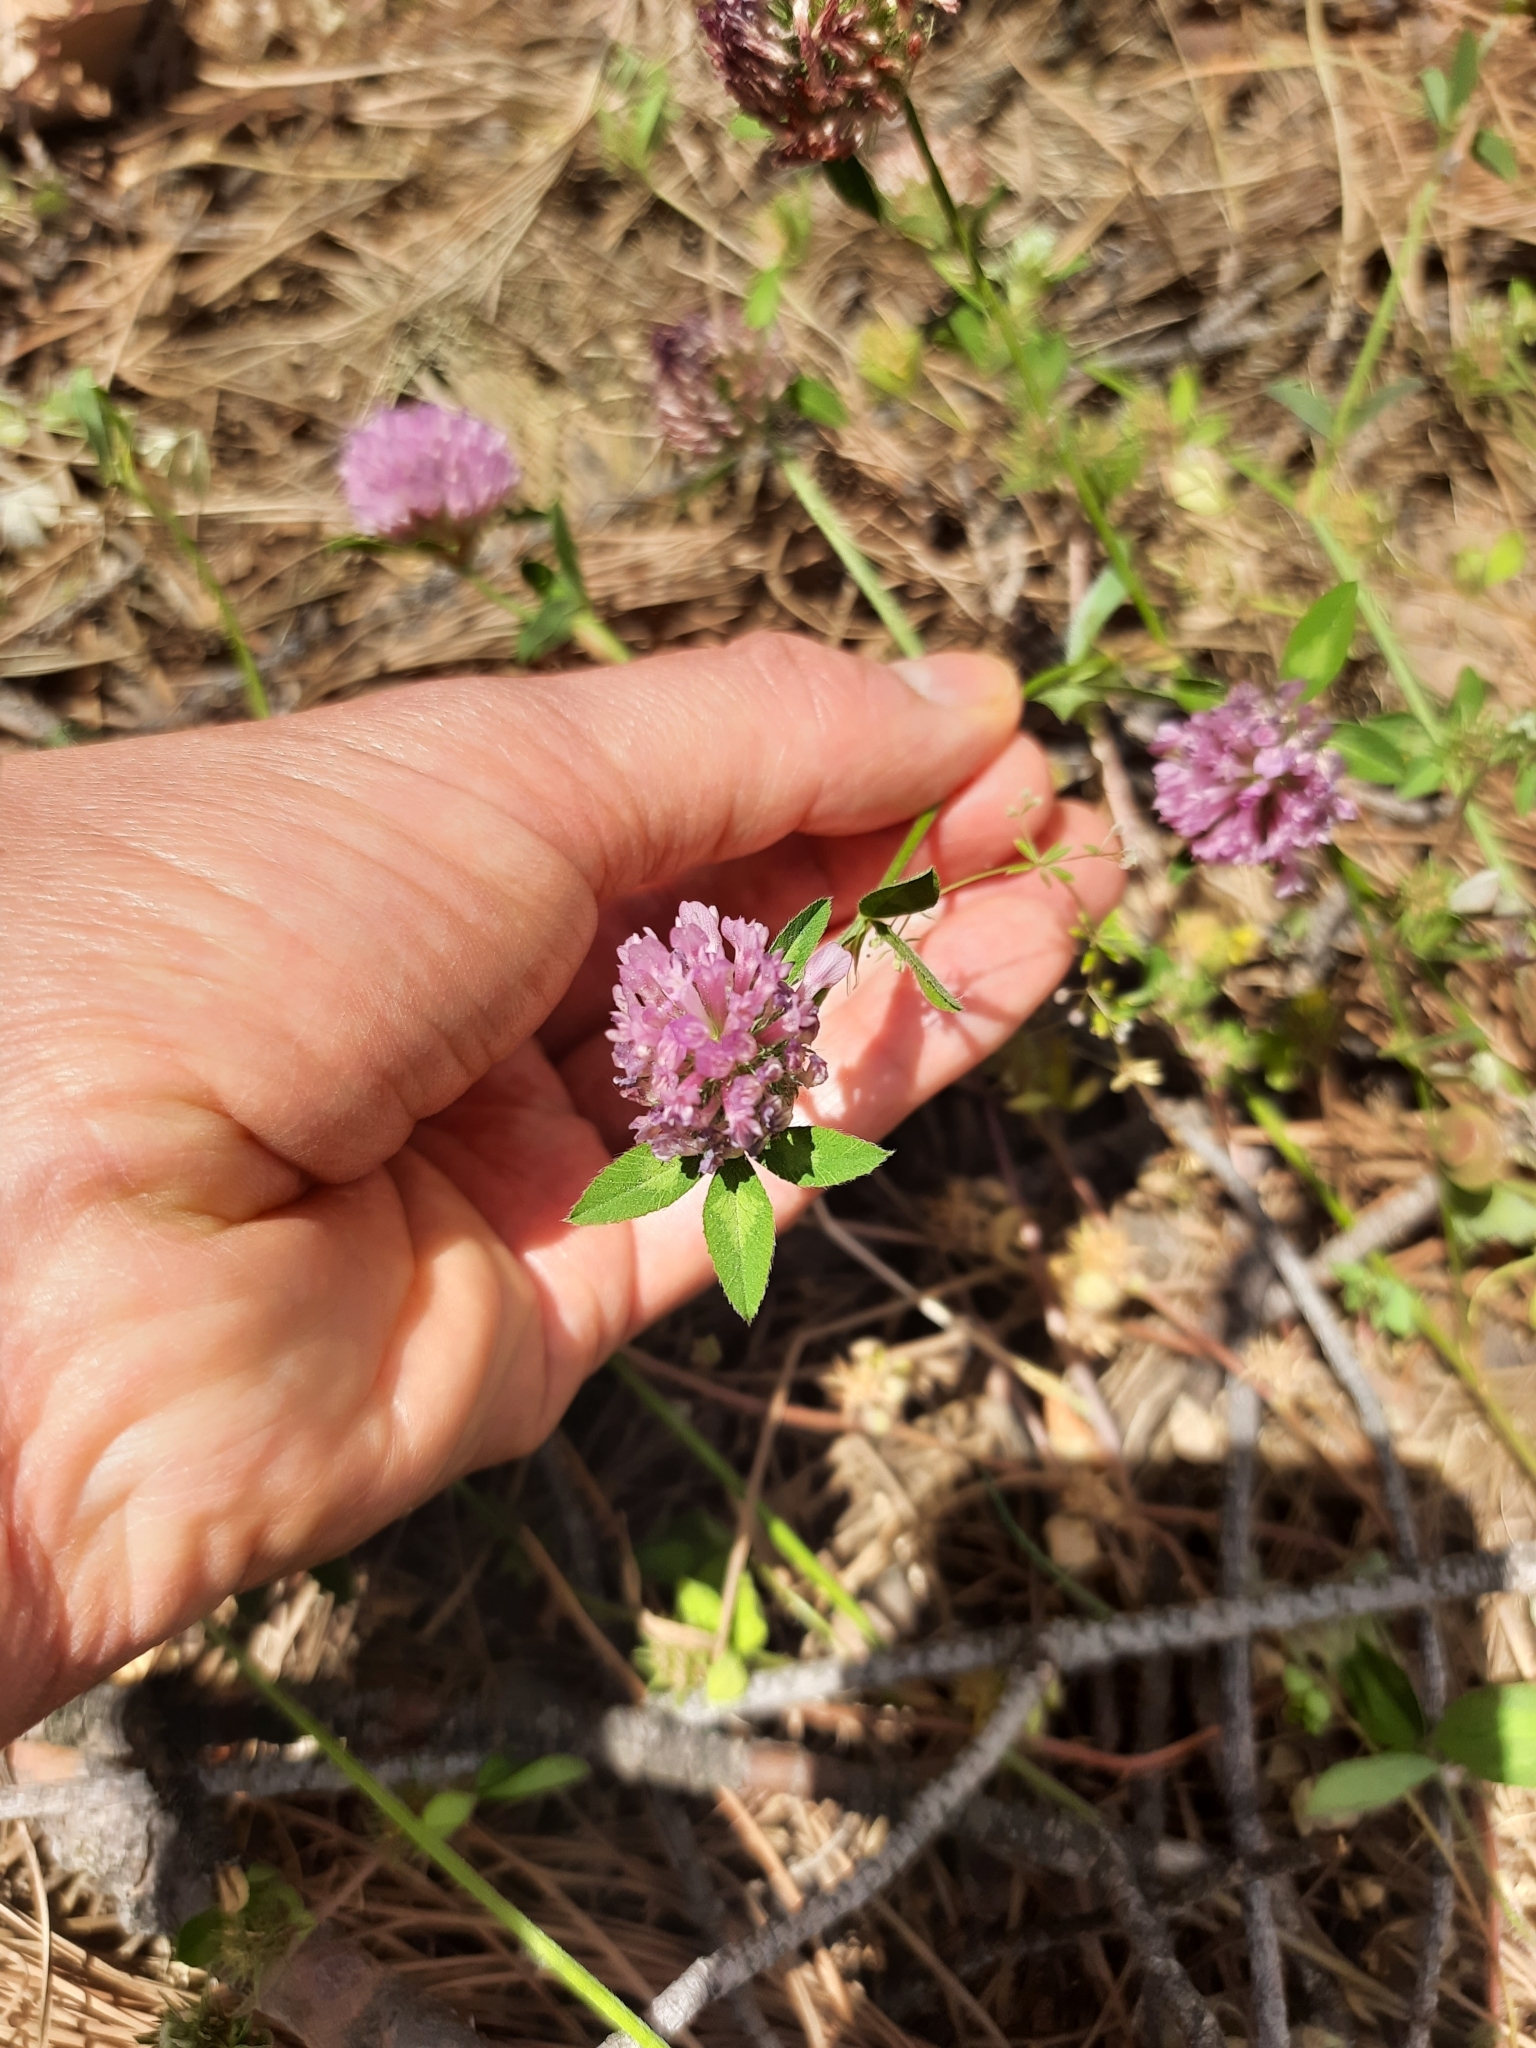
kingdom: Plantae
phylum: Tracheophyta
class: Magnoliopsida
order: Fabales
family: Fabaceae
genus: Trifolium
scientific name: Trifolium pratense
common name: Red clover
